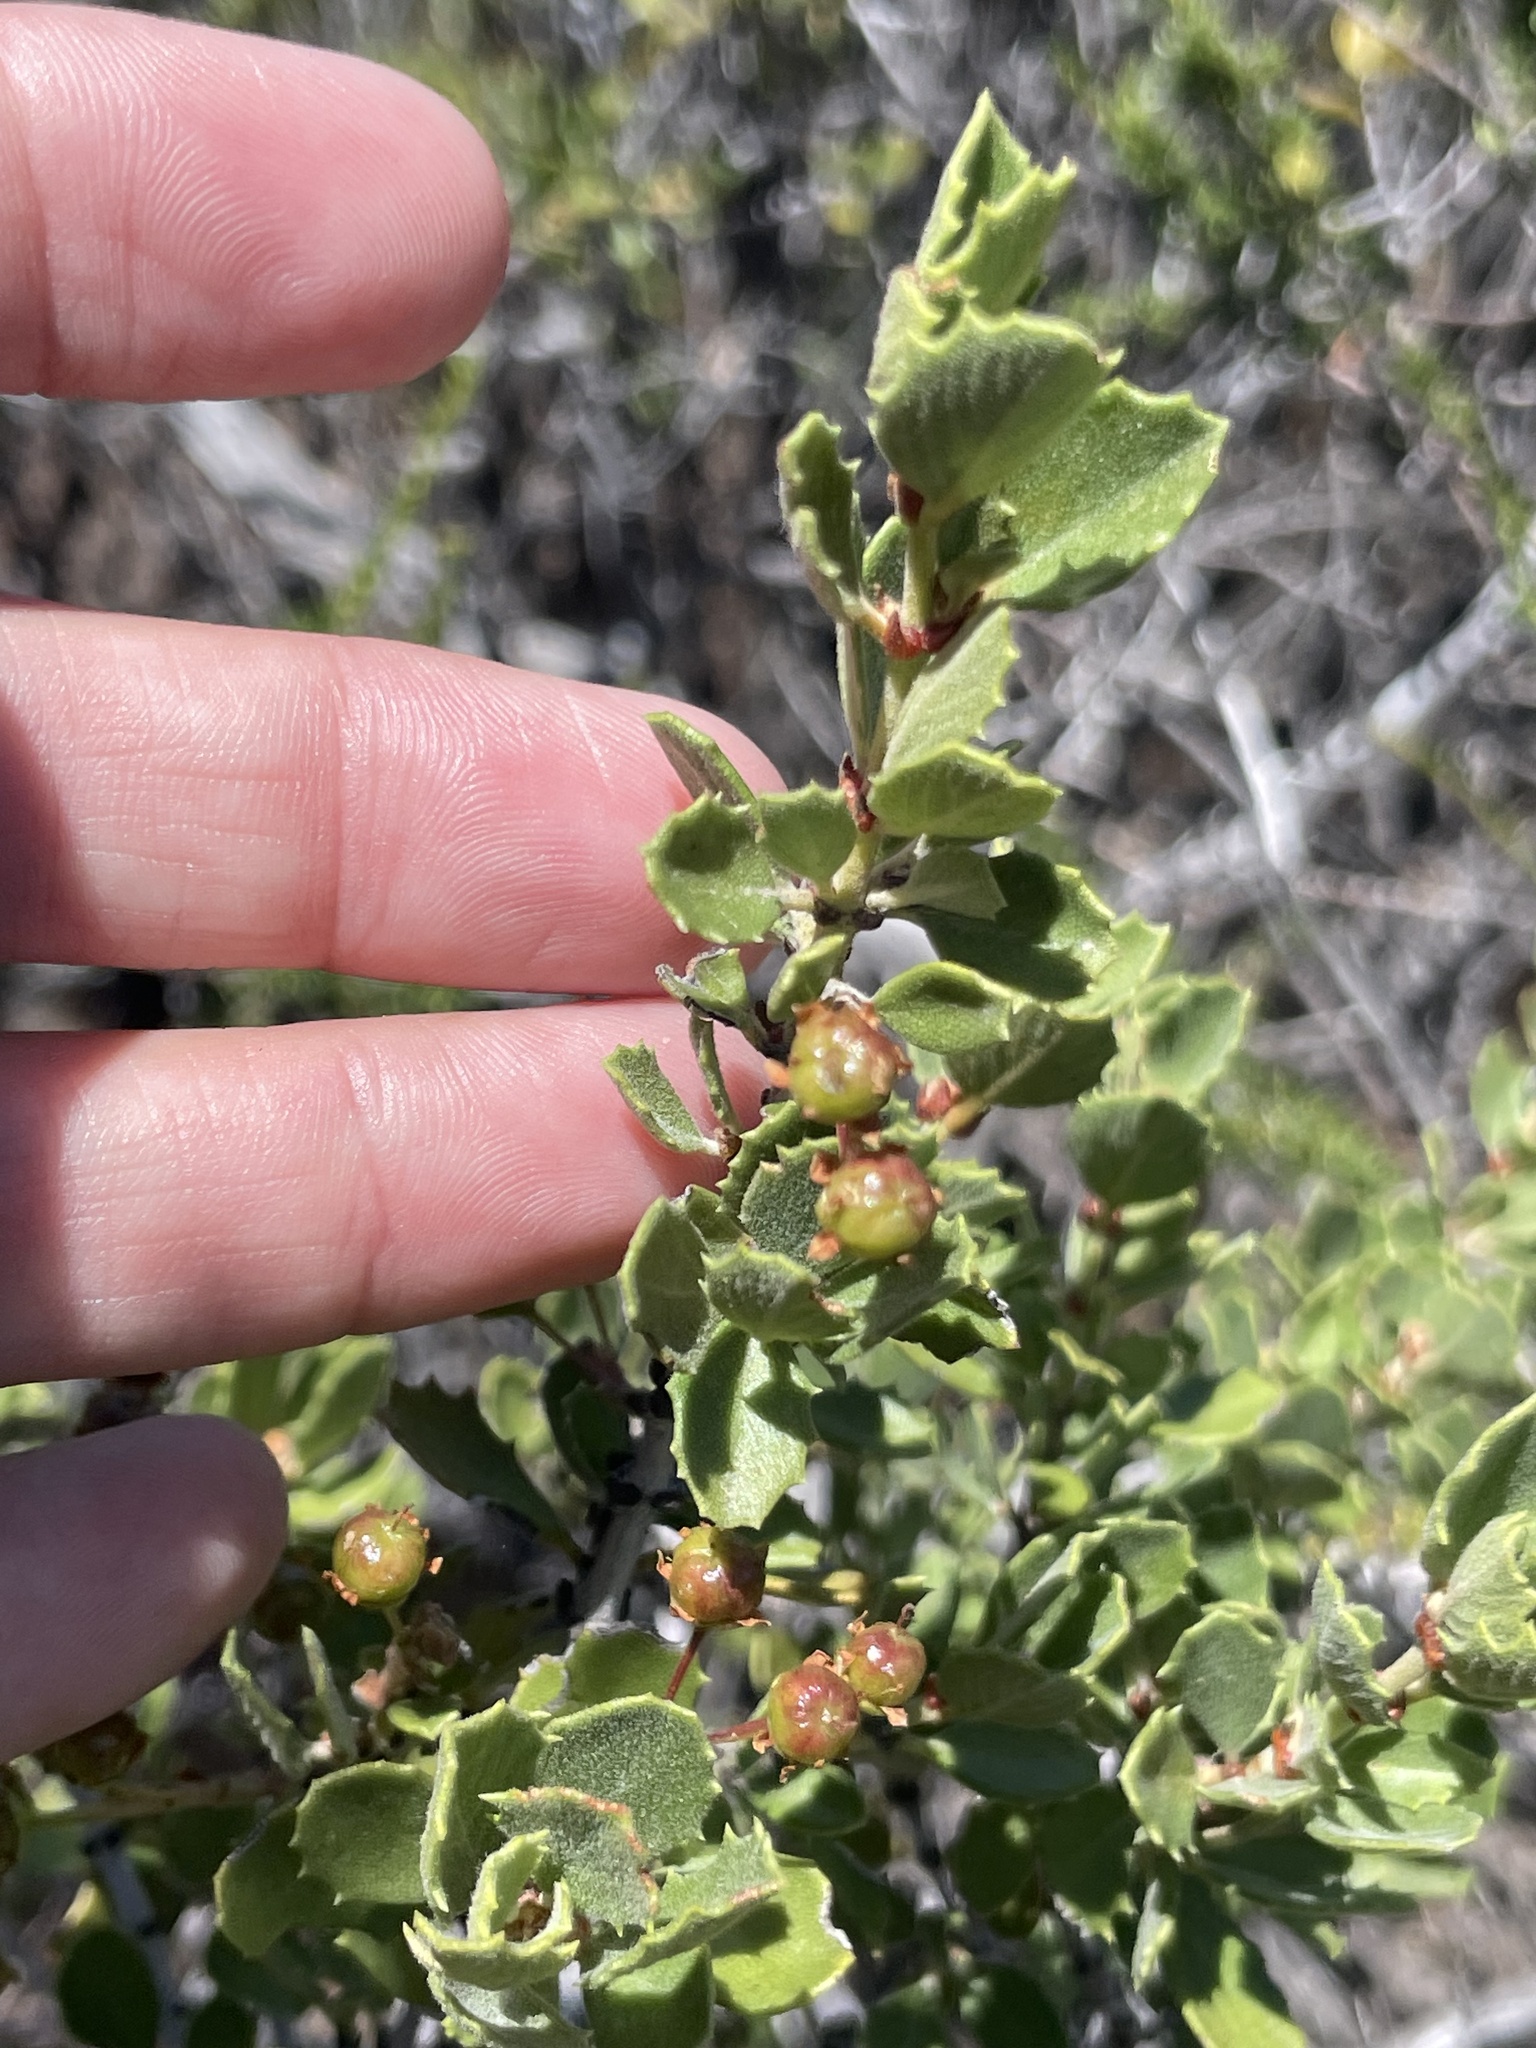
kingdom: Plantae
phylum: Tracheophyta
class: Magnoliopsida
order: Rosales
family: Rhamnaceae
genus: Ceanothus
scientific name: Ceanothus perplexans
